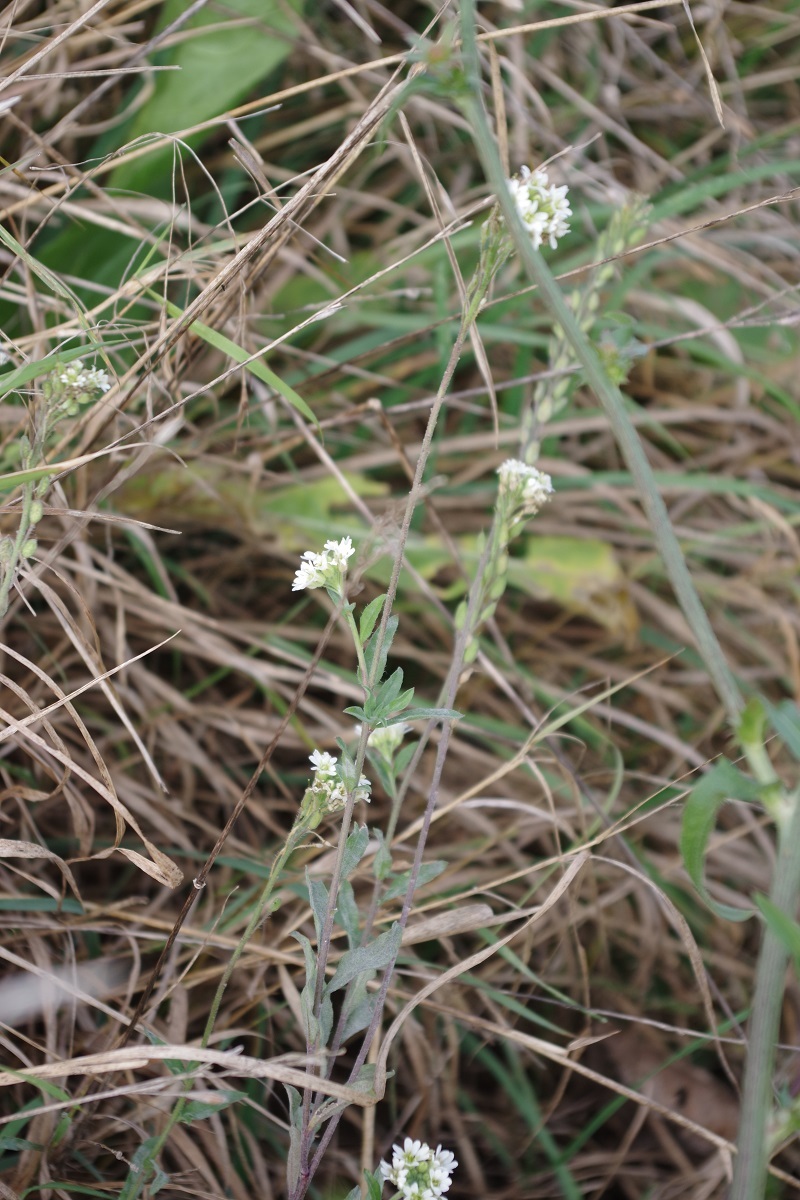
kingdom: Plantae
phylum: Tracheophyta
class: Magnoliopsida
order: Brassicales
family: Brassicaceae
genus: Berteroa
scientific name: Berteroa incana
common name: Hoary alison
